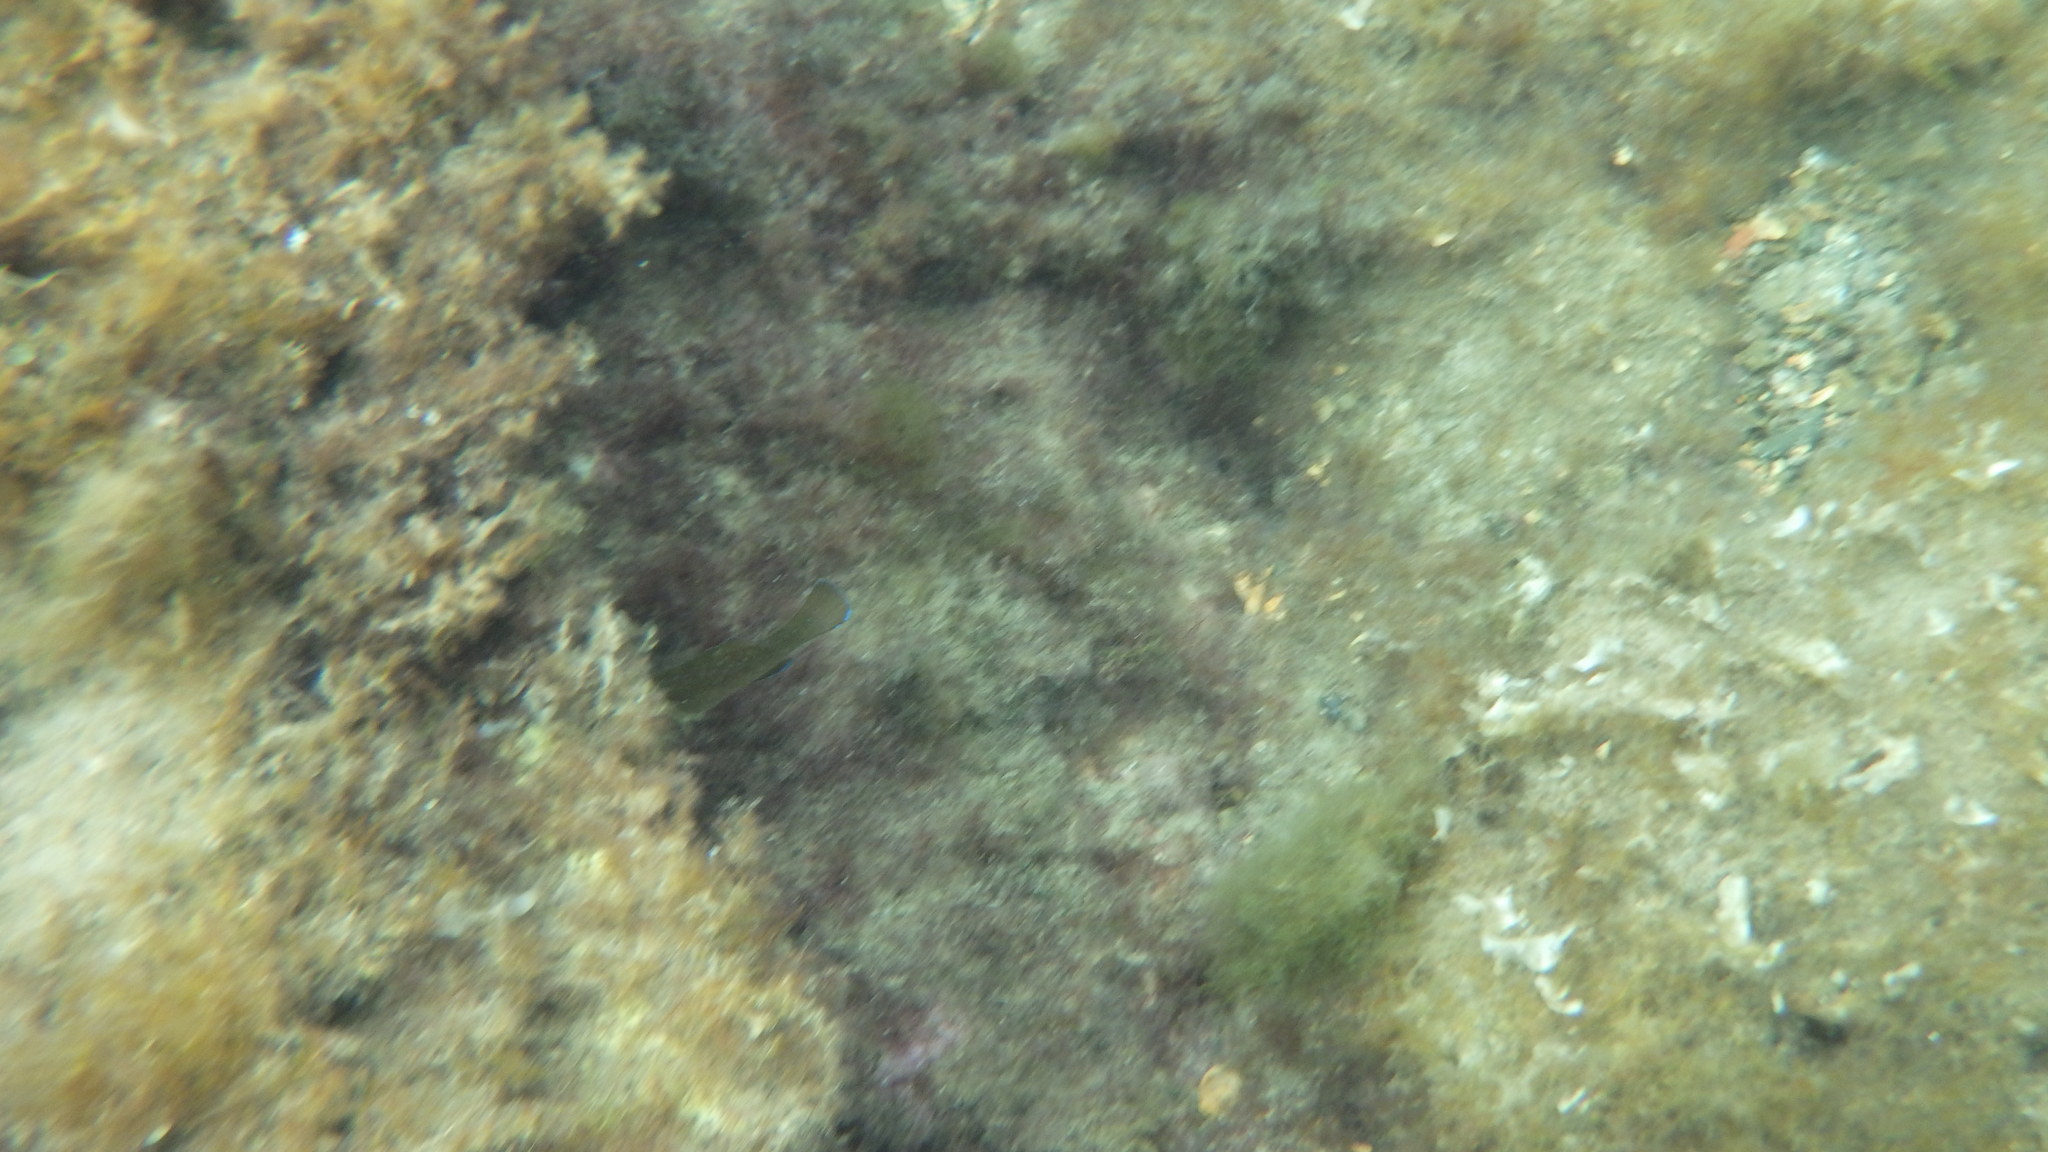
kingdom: Animalia
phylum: Chordata
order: Perciformes
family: Labridae
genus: Labrus
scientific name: Labrus merula
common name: Brown wrasse
